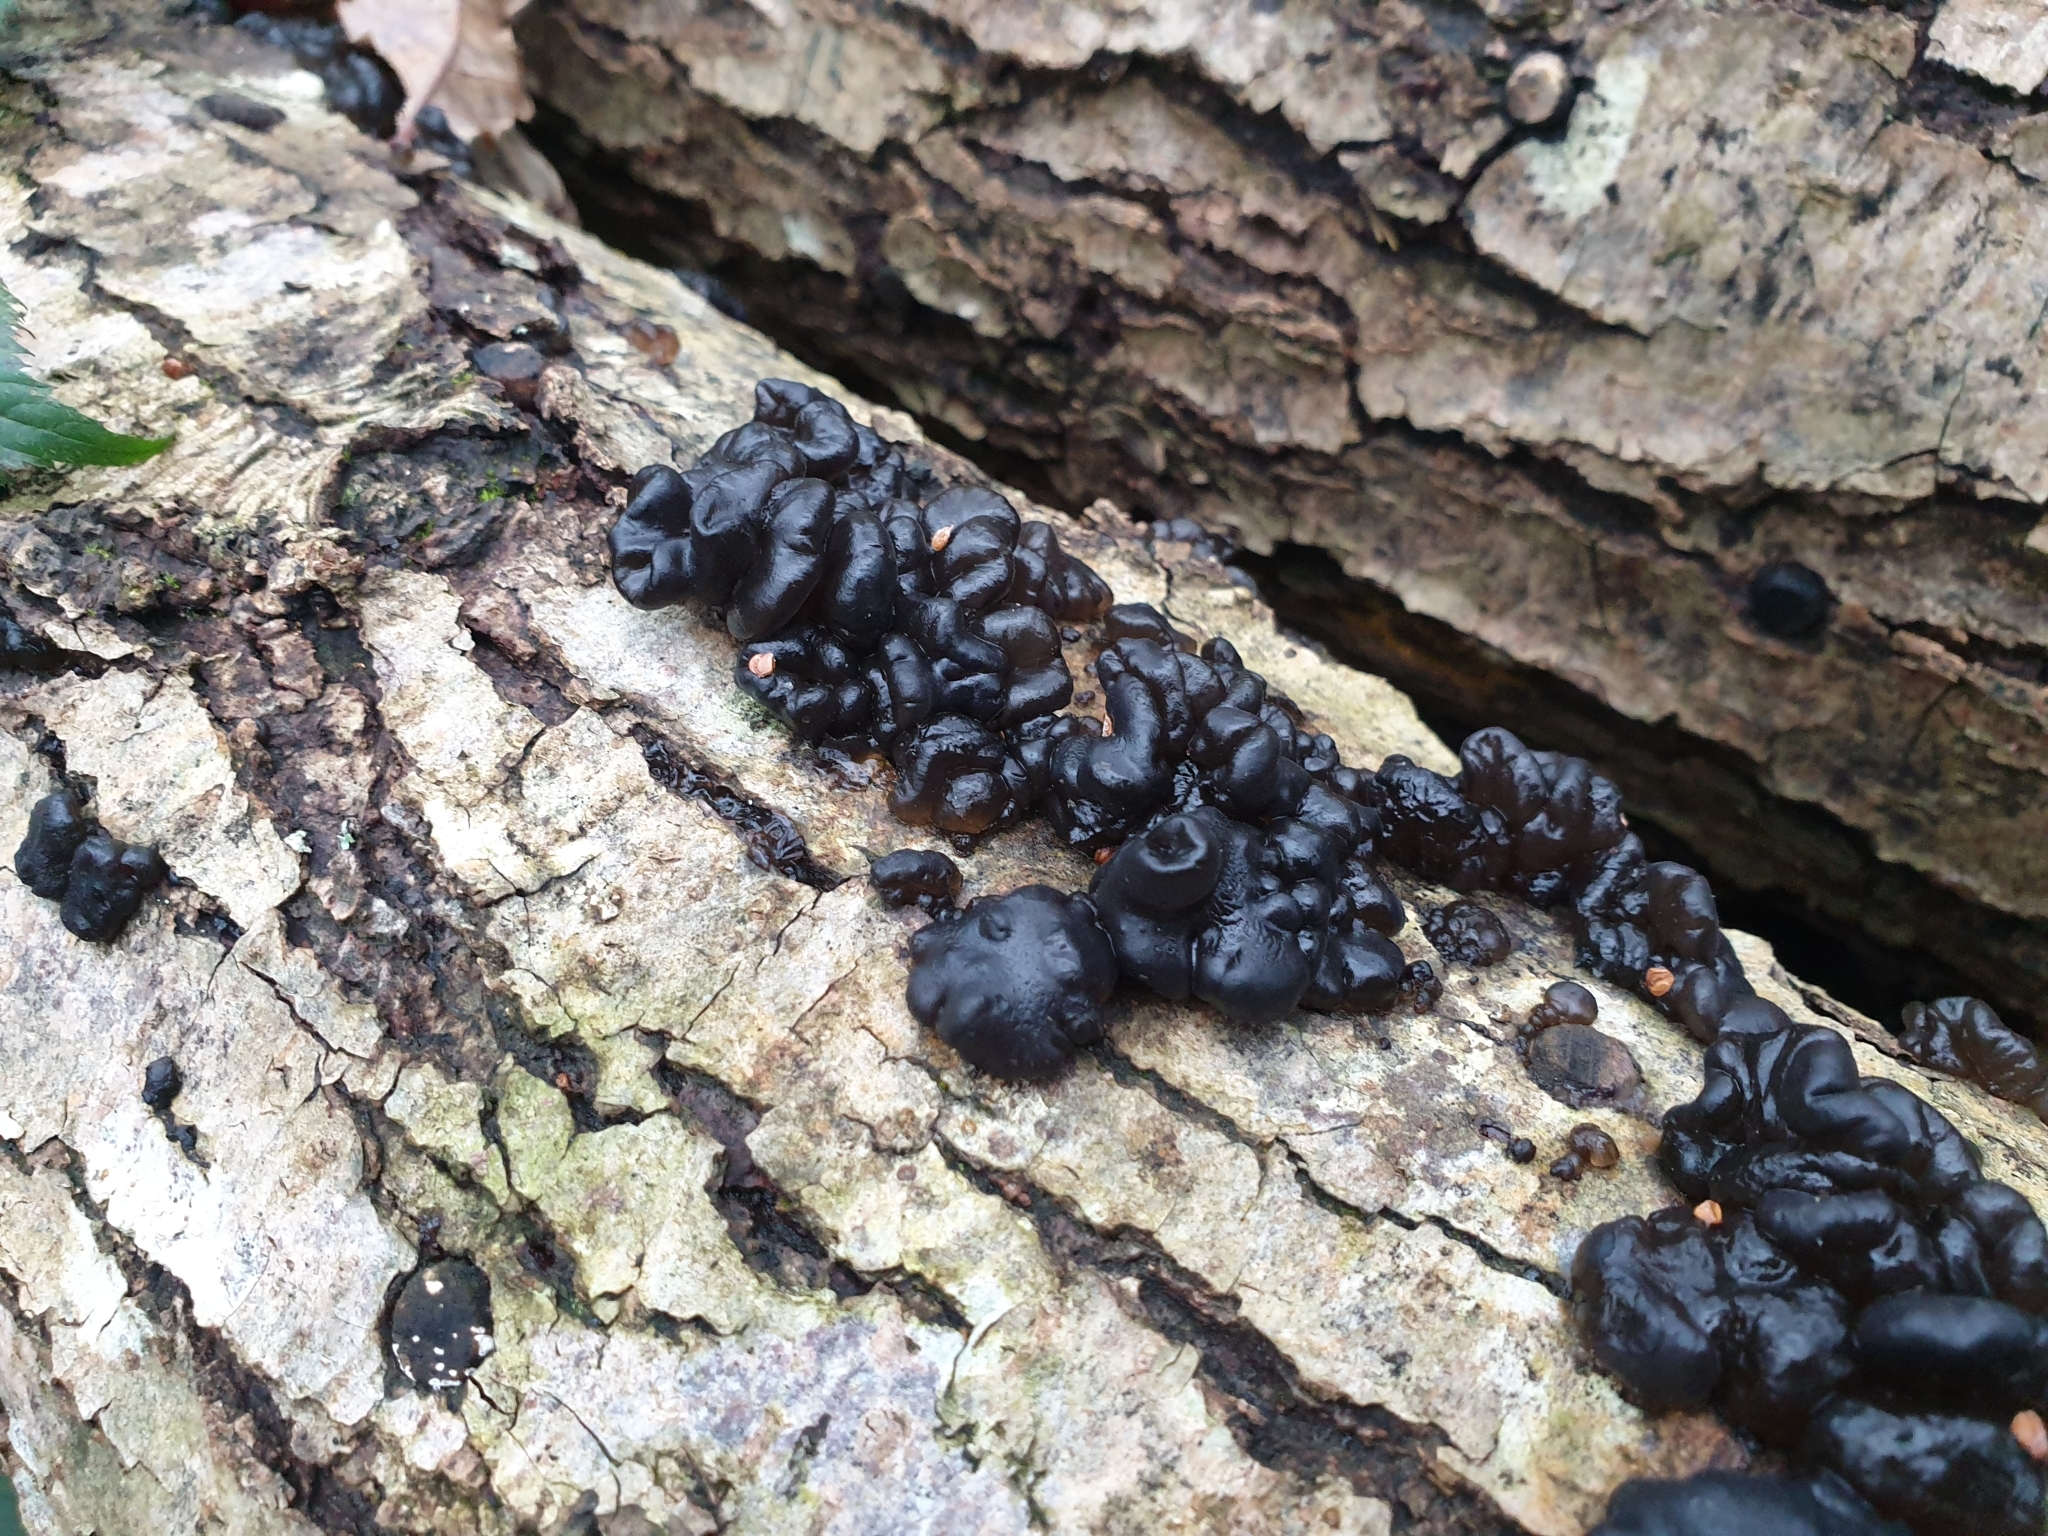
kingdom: Fungi
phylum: Basidiomycota
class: Agaricomycetes
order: Auriculariales
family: Auriculariaceae
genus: Exidia
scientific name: Exidia nigricans
